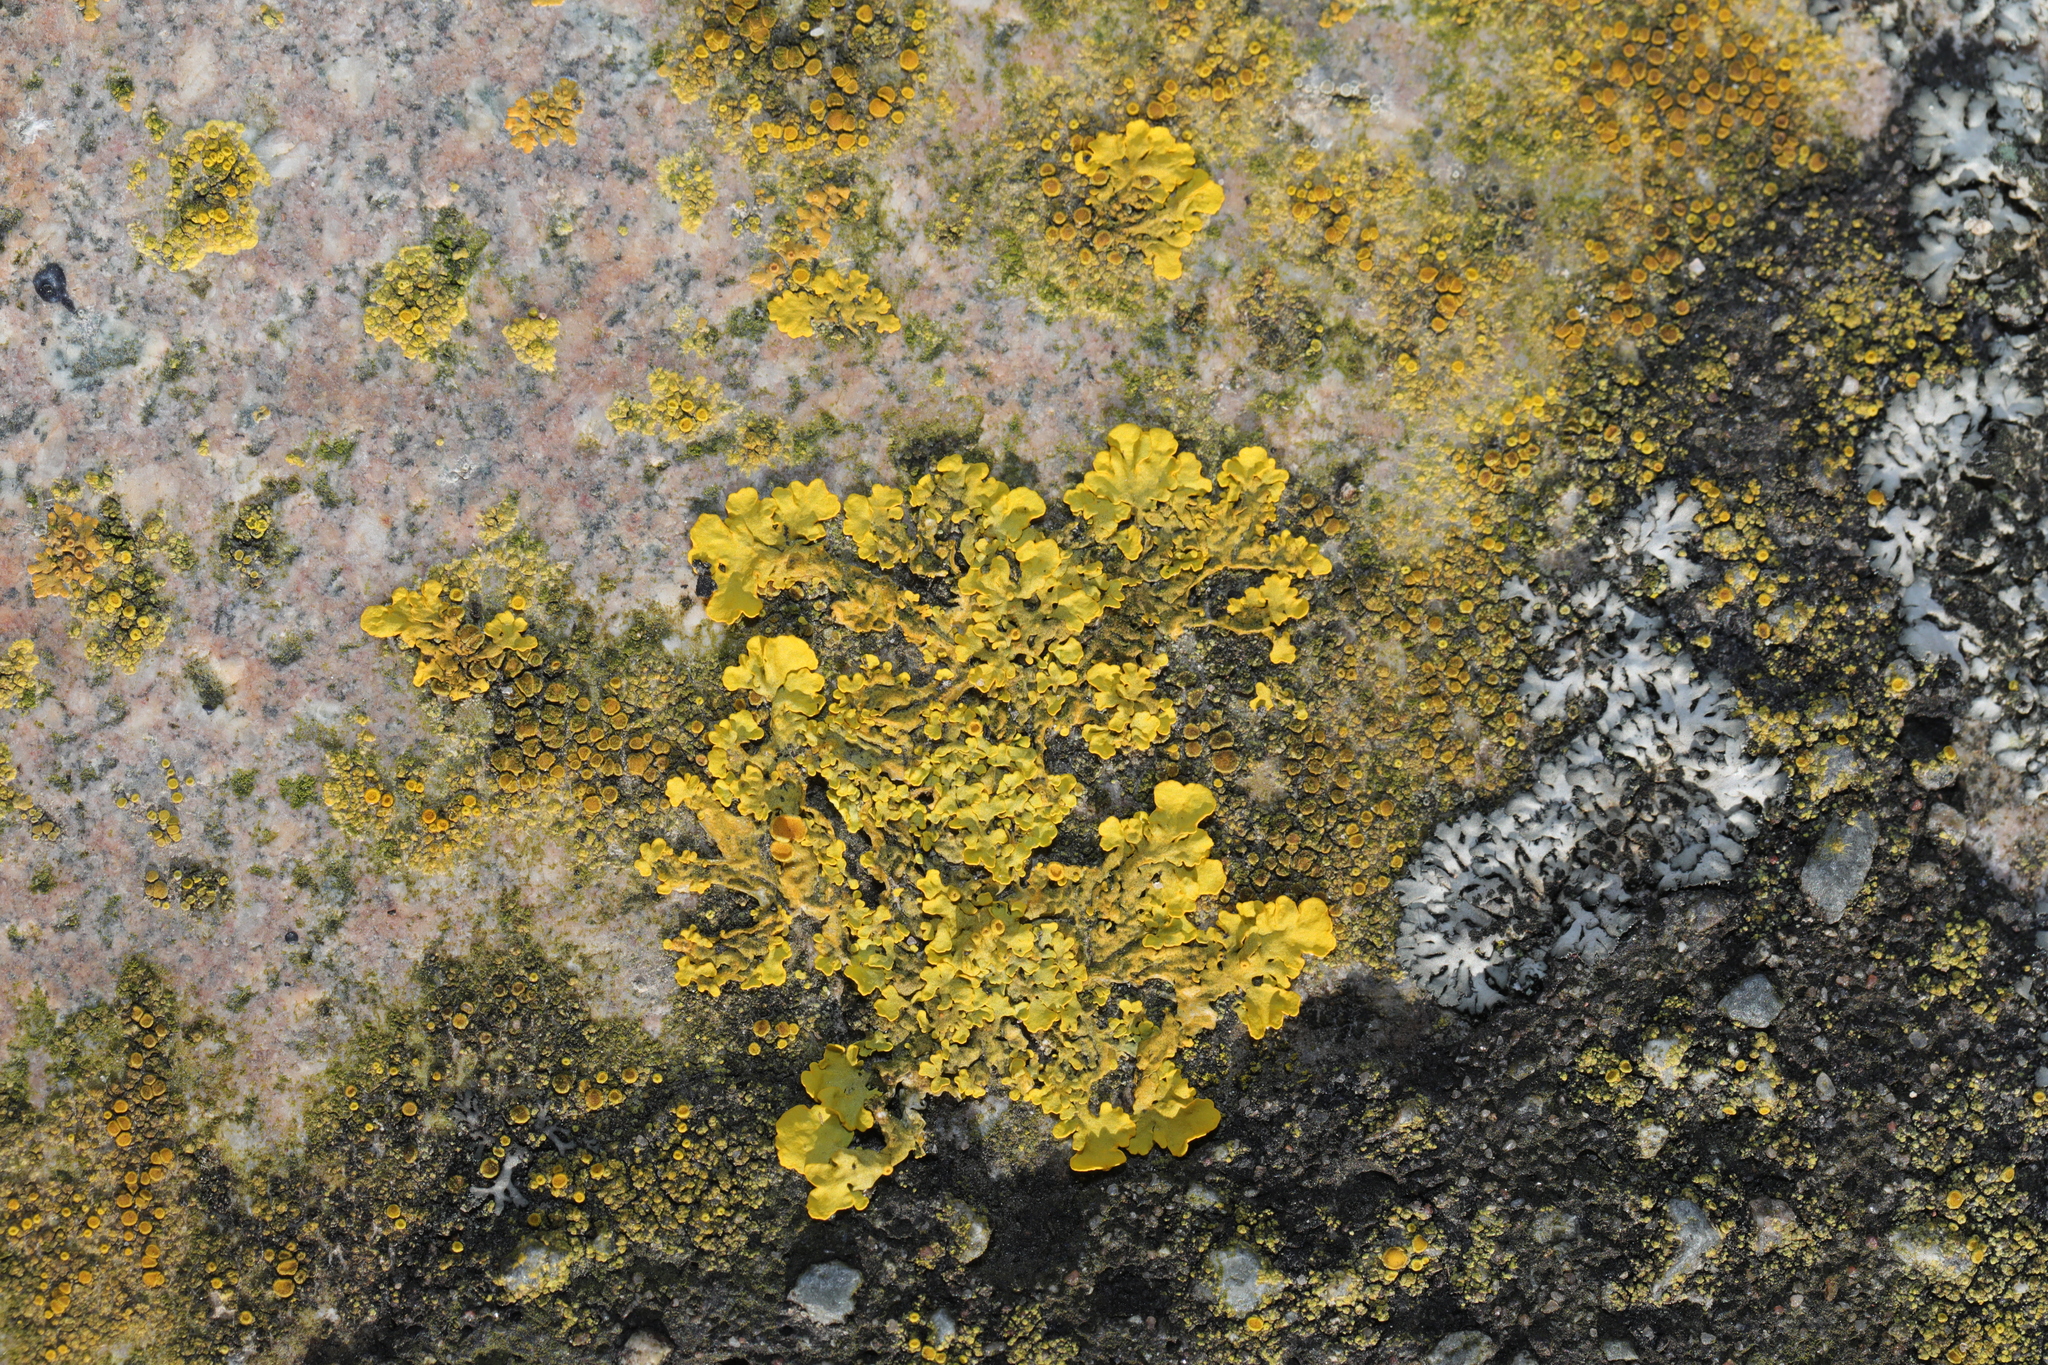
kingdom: Fungi
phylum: Ascomycota
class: Lecanoromycetes
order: Teloschistales
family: Teloschistaceae
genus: Xanthoria
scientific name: Xanthoria parietina
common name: Common orange lichen
